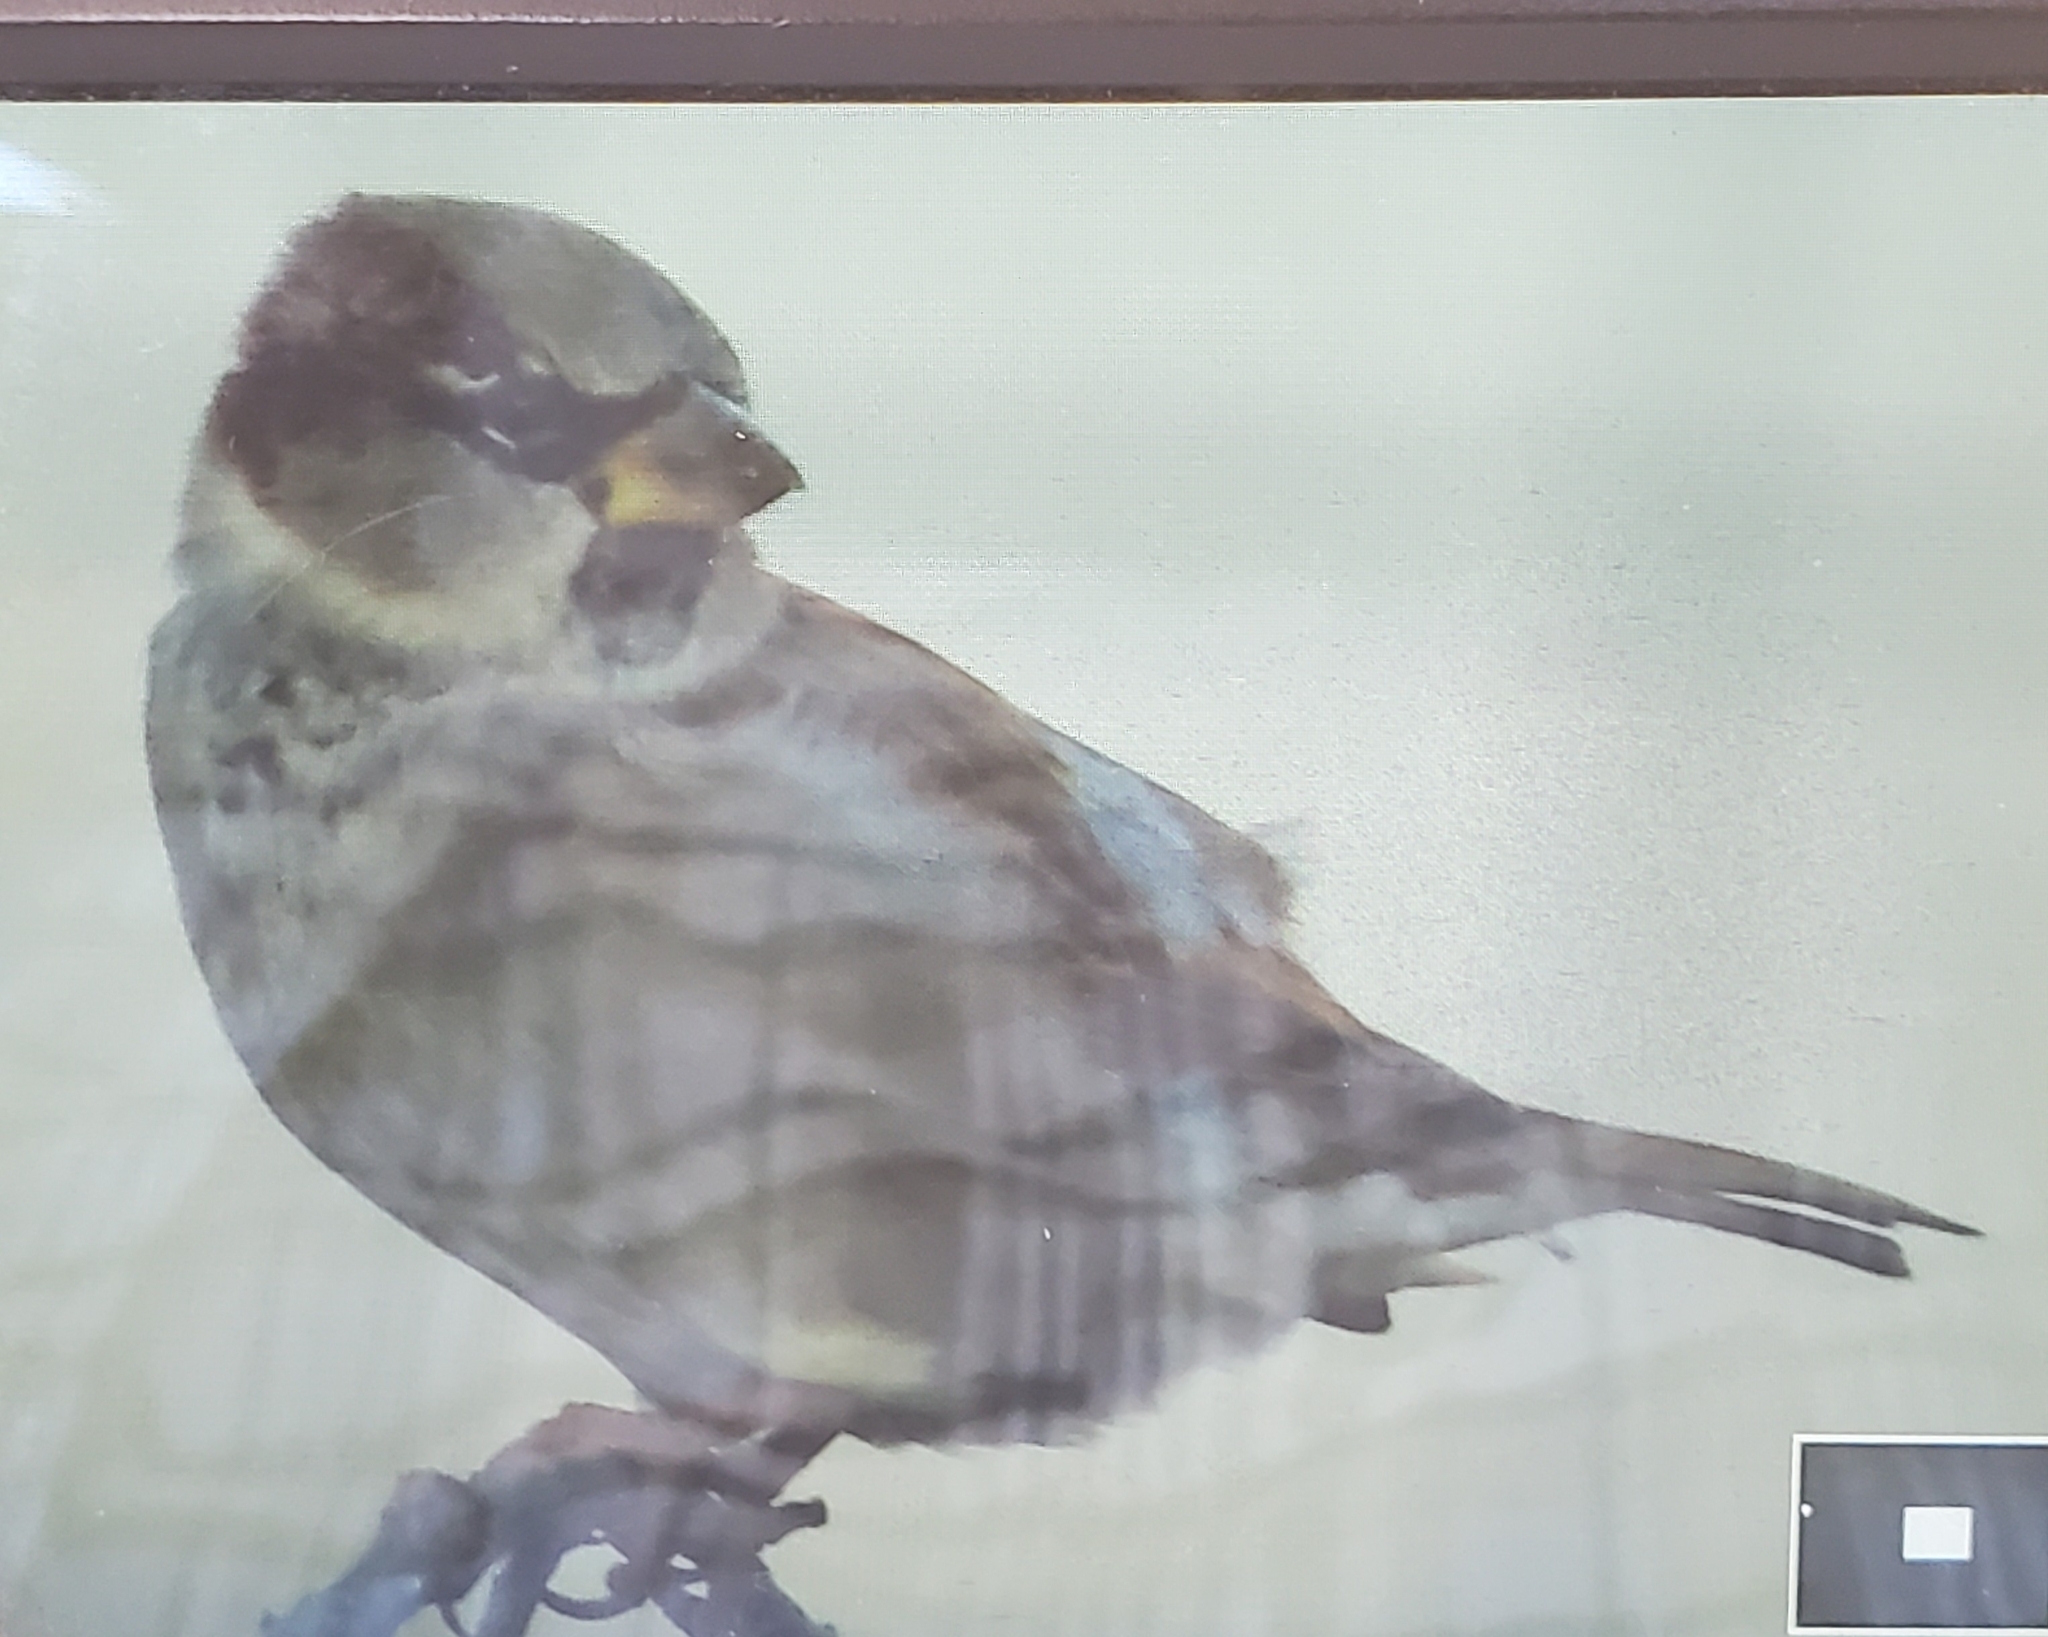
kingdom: Animalia
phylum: Chordata
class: Aves
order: Passeriformes
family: Passeridae
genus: Passer
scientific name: Passer domesticus
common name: House sparrow
